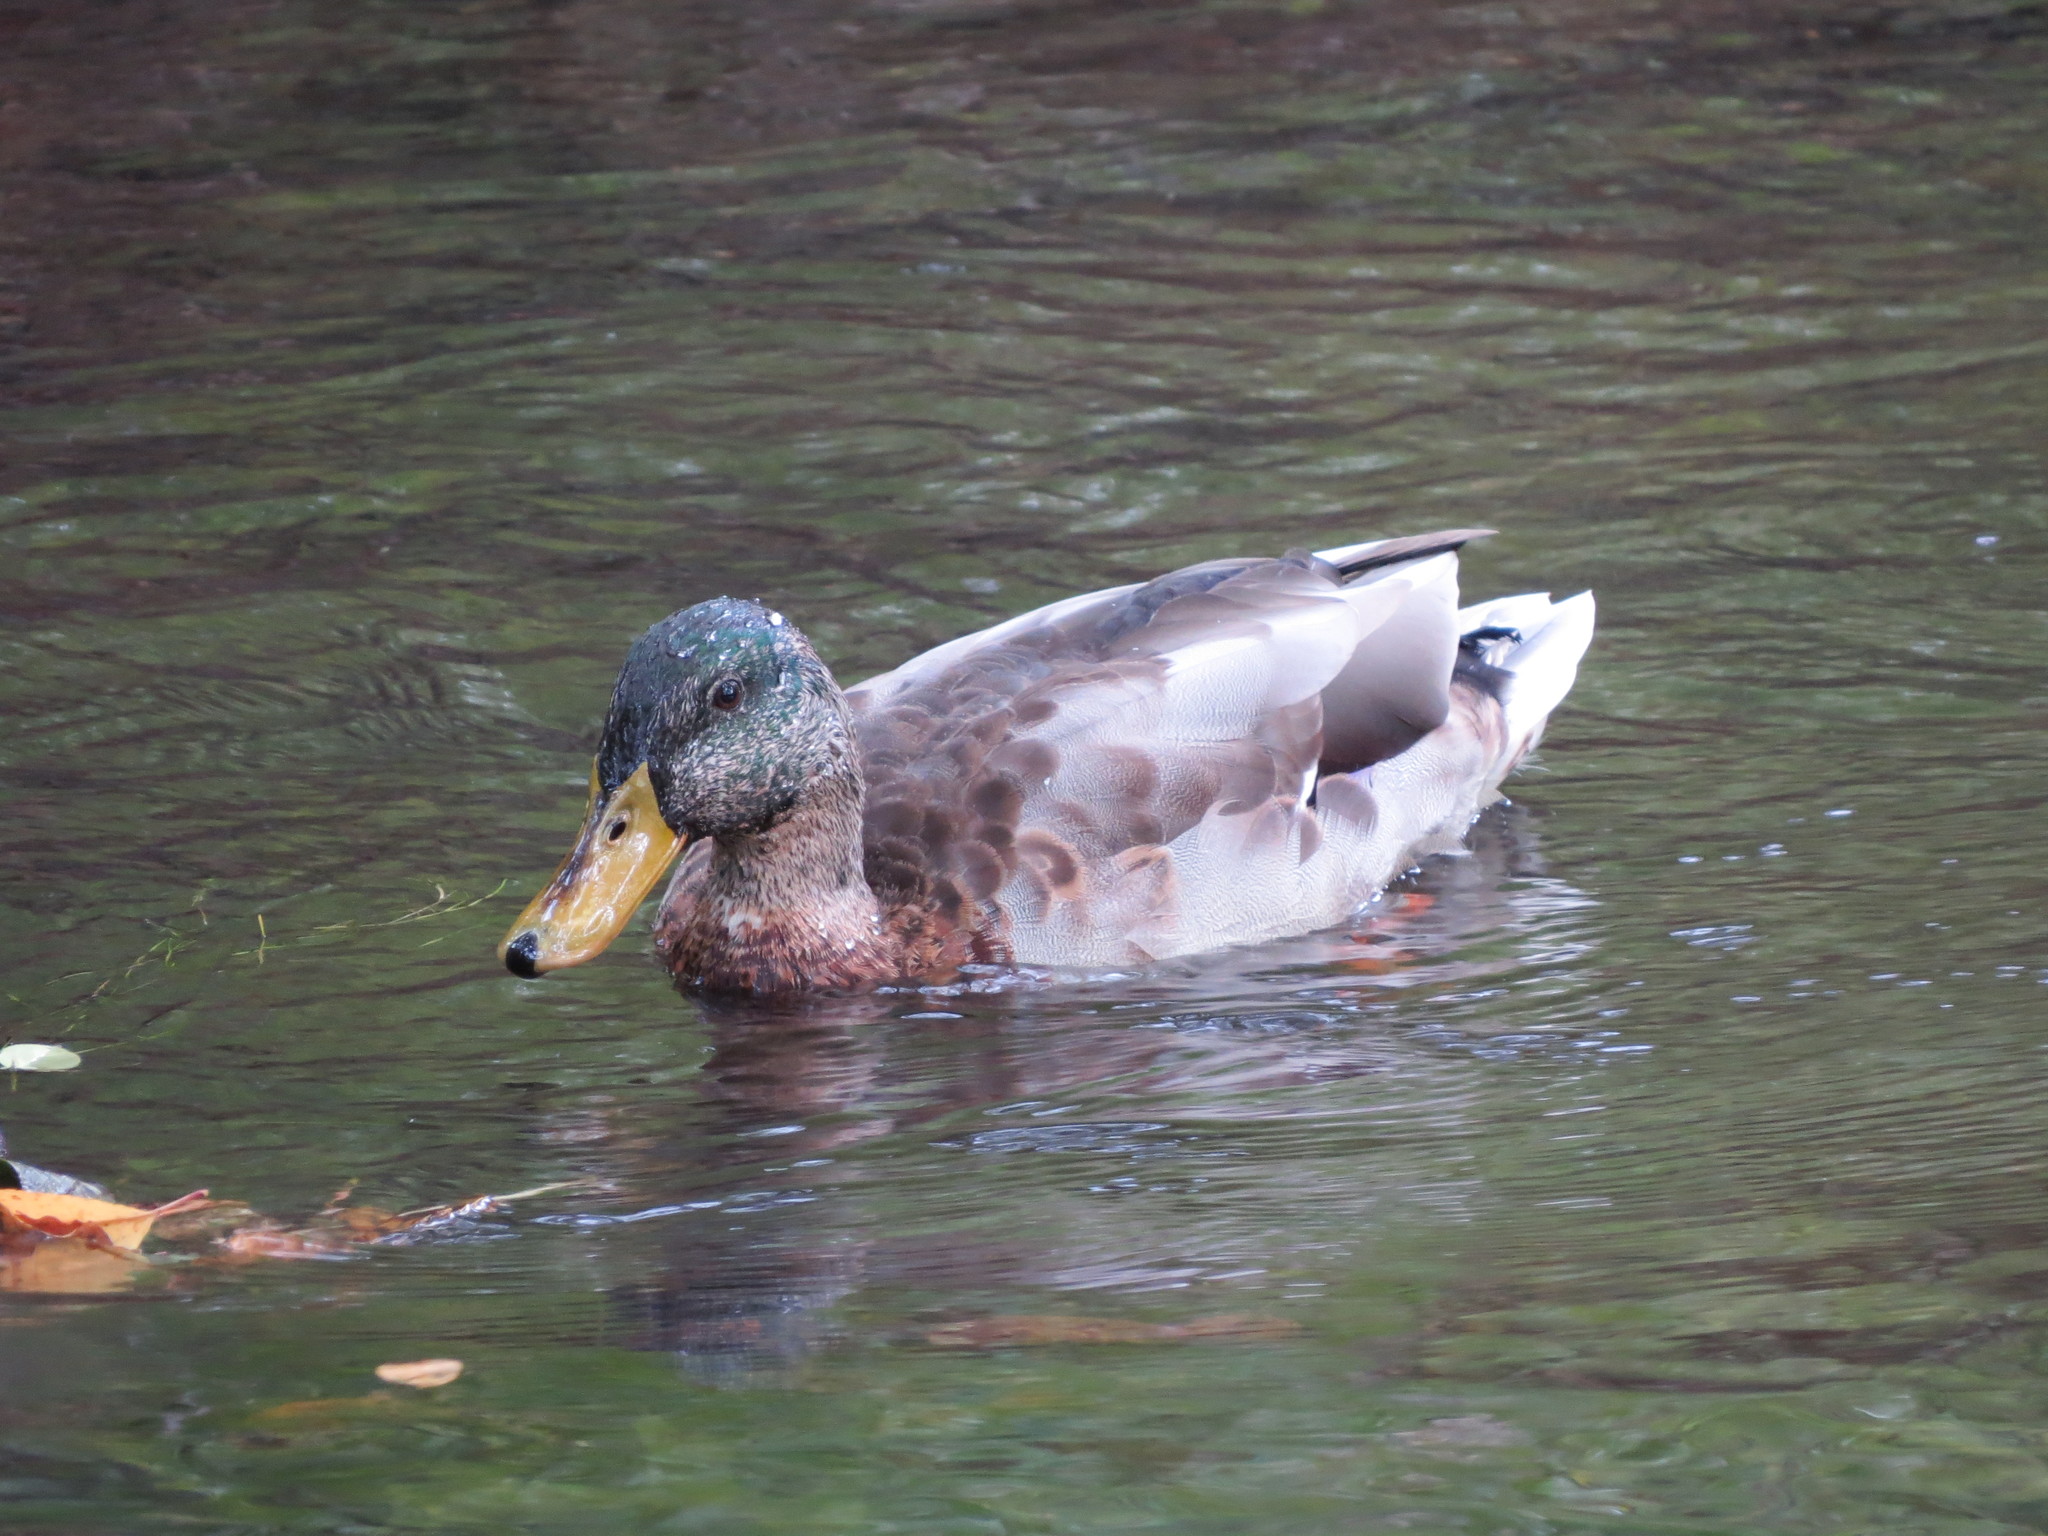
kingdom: Animalia
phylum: Chordata
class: Aves
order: Anseriformes
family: Anatidae
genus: Anas
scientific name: Anas platyrhynchos
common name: Mallard
